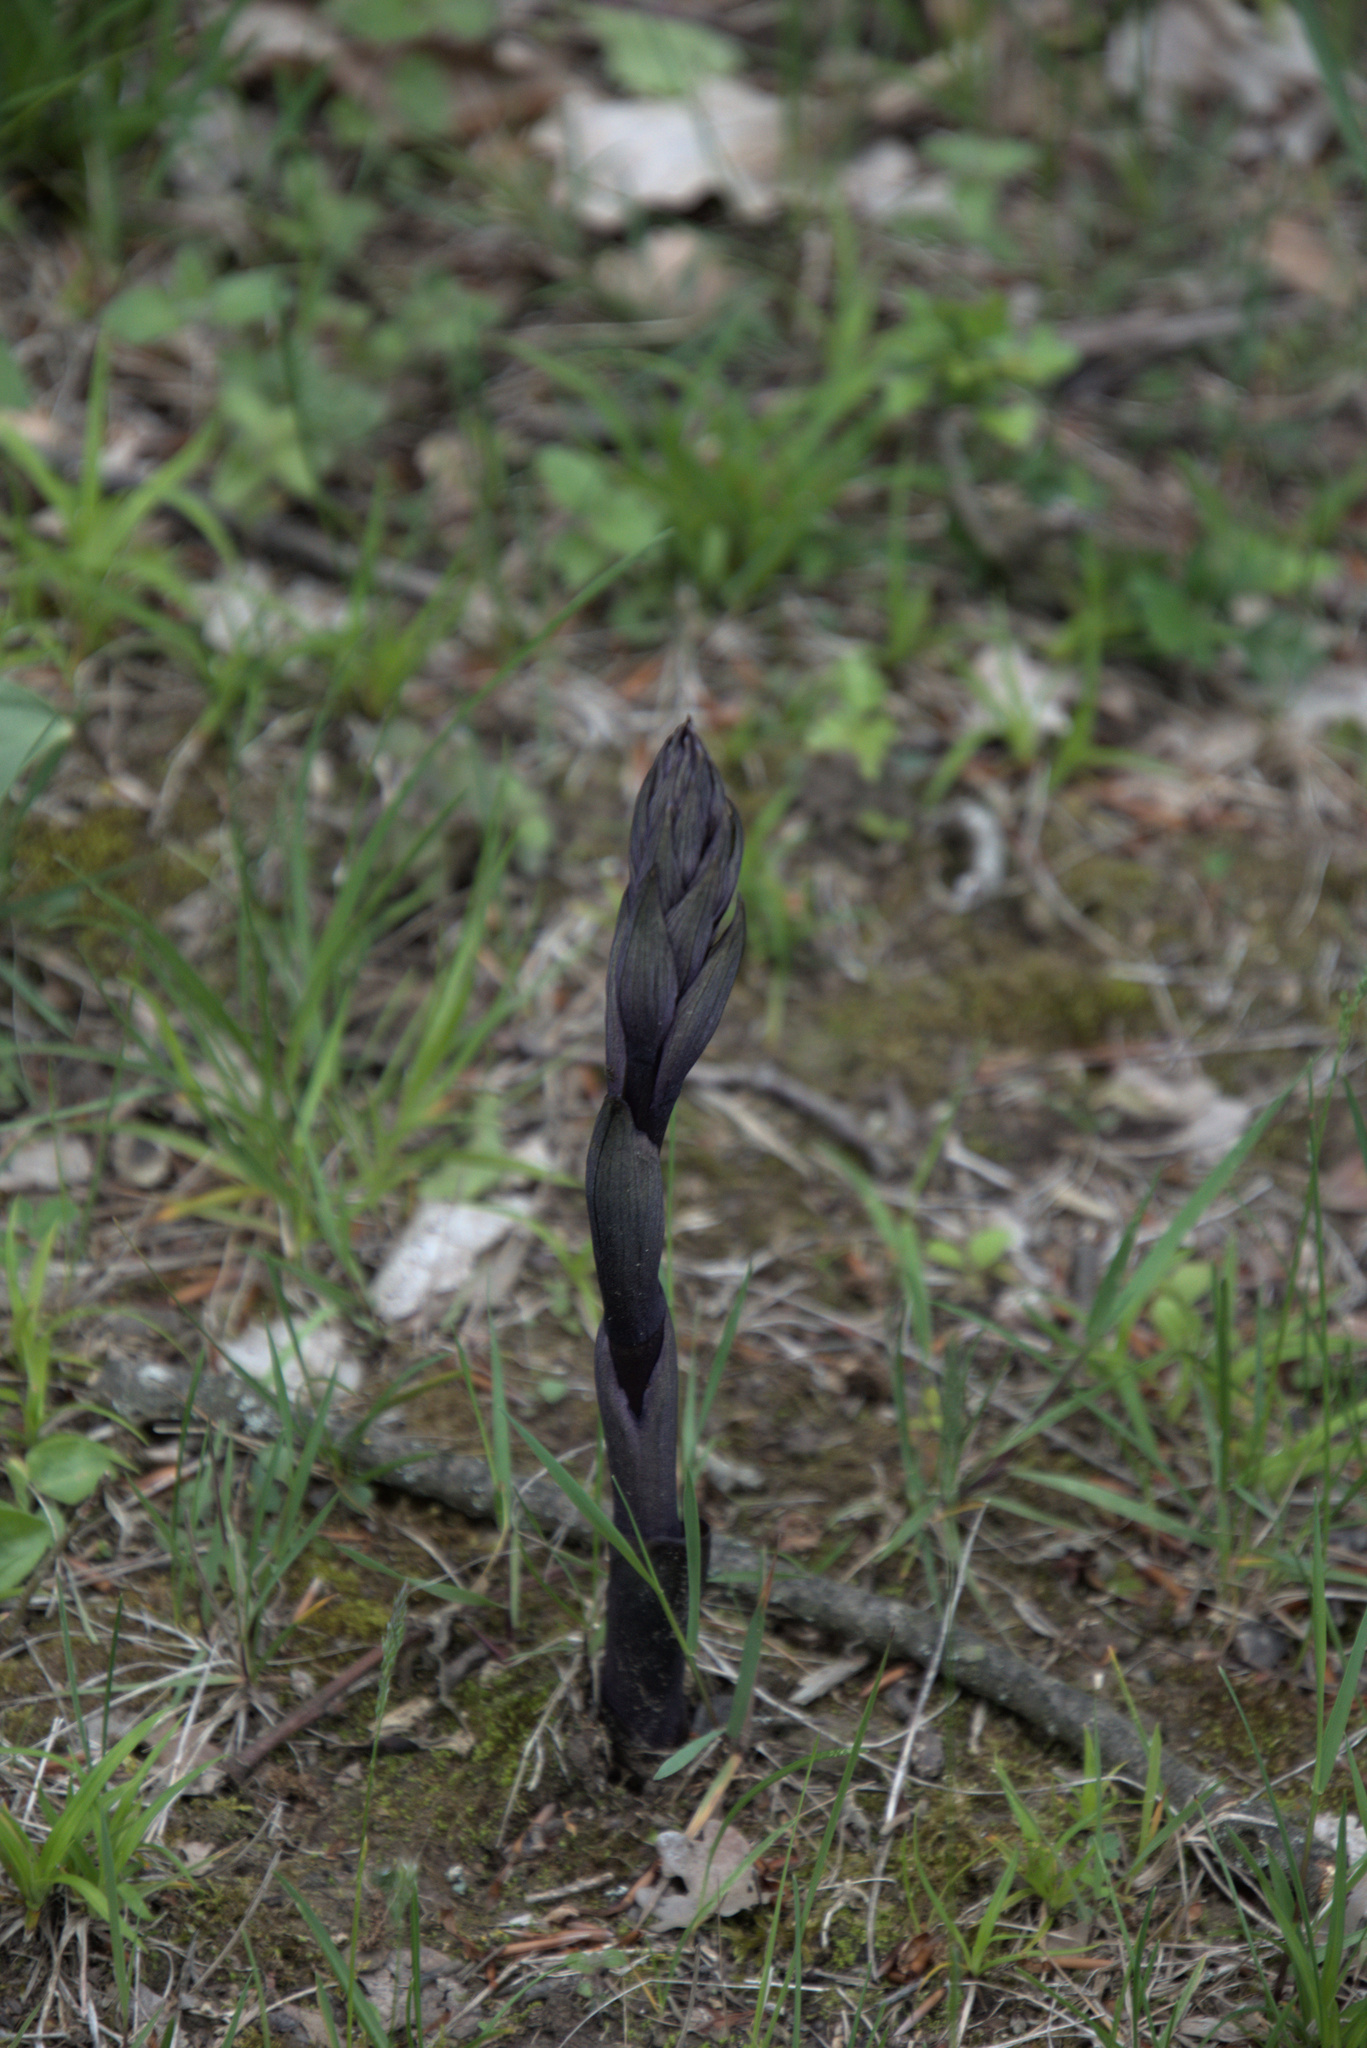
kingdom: Plantae
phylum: Tracheophyta
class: Liliopsida
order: Asparagales
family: Orchidaceae
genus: Limodorum
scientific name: Limodorum abortivum
